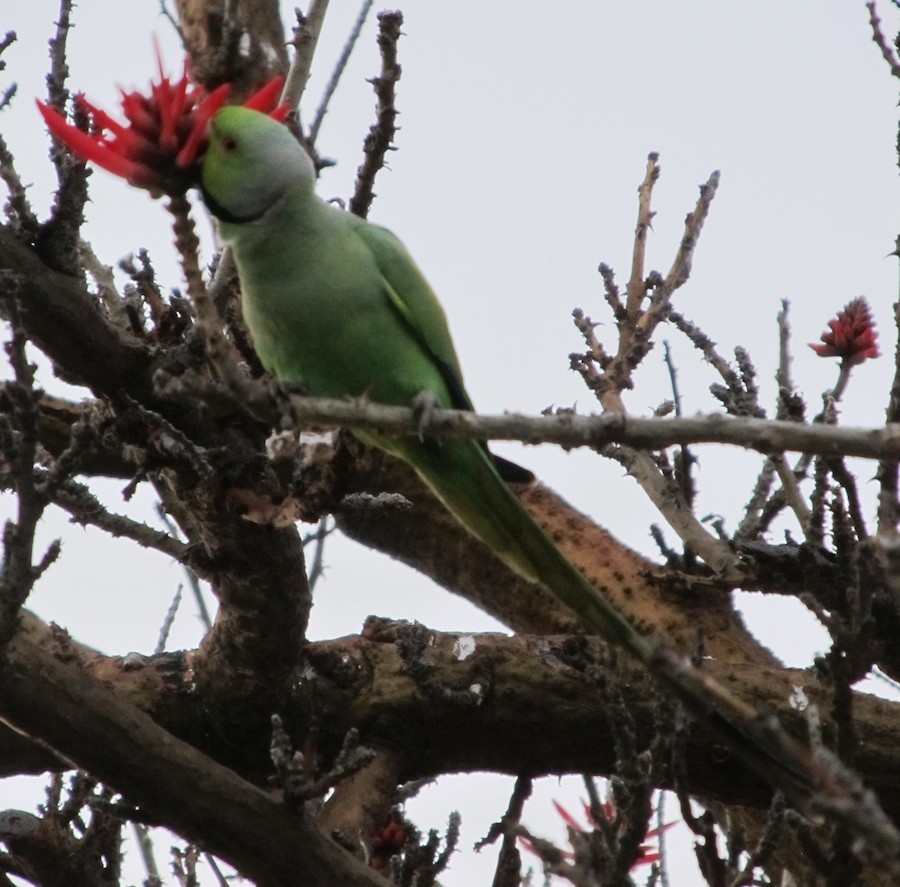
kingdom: Animalia
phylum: Chordata
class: Aves
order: Psittaciformes
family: Psittacidae
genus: Psittacula
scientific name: Psittacula krameri
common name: Rose-ringed parakeet
